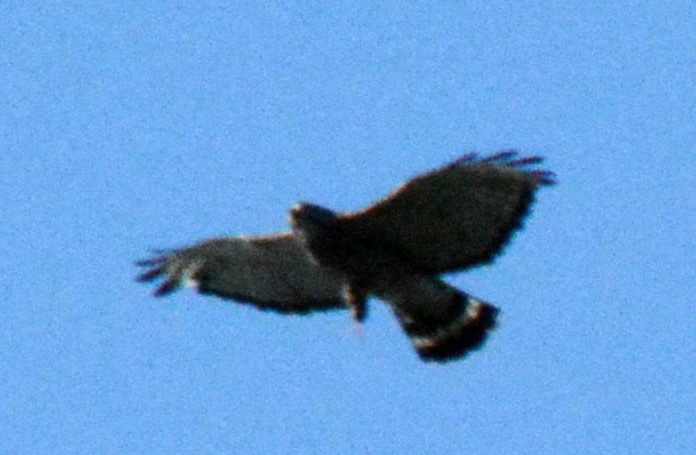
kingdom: Animalia
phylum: Chordata
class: Aves
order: Accipitriformes
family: Accipitridae
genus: Buteo
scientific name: Buteo platypterus
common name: Broad-winged hawk
